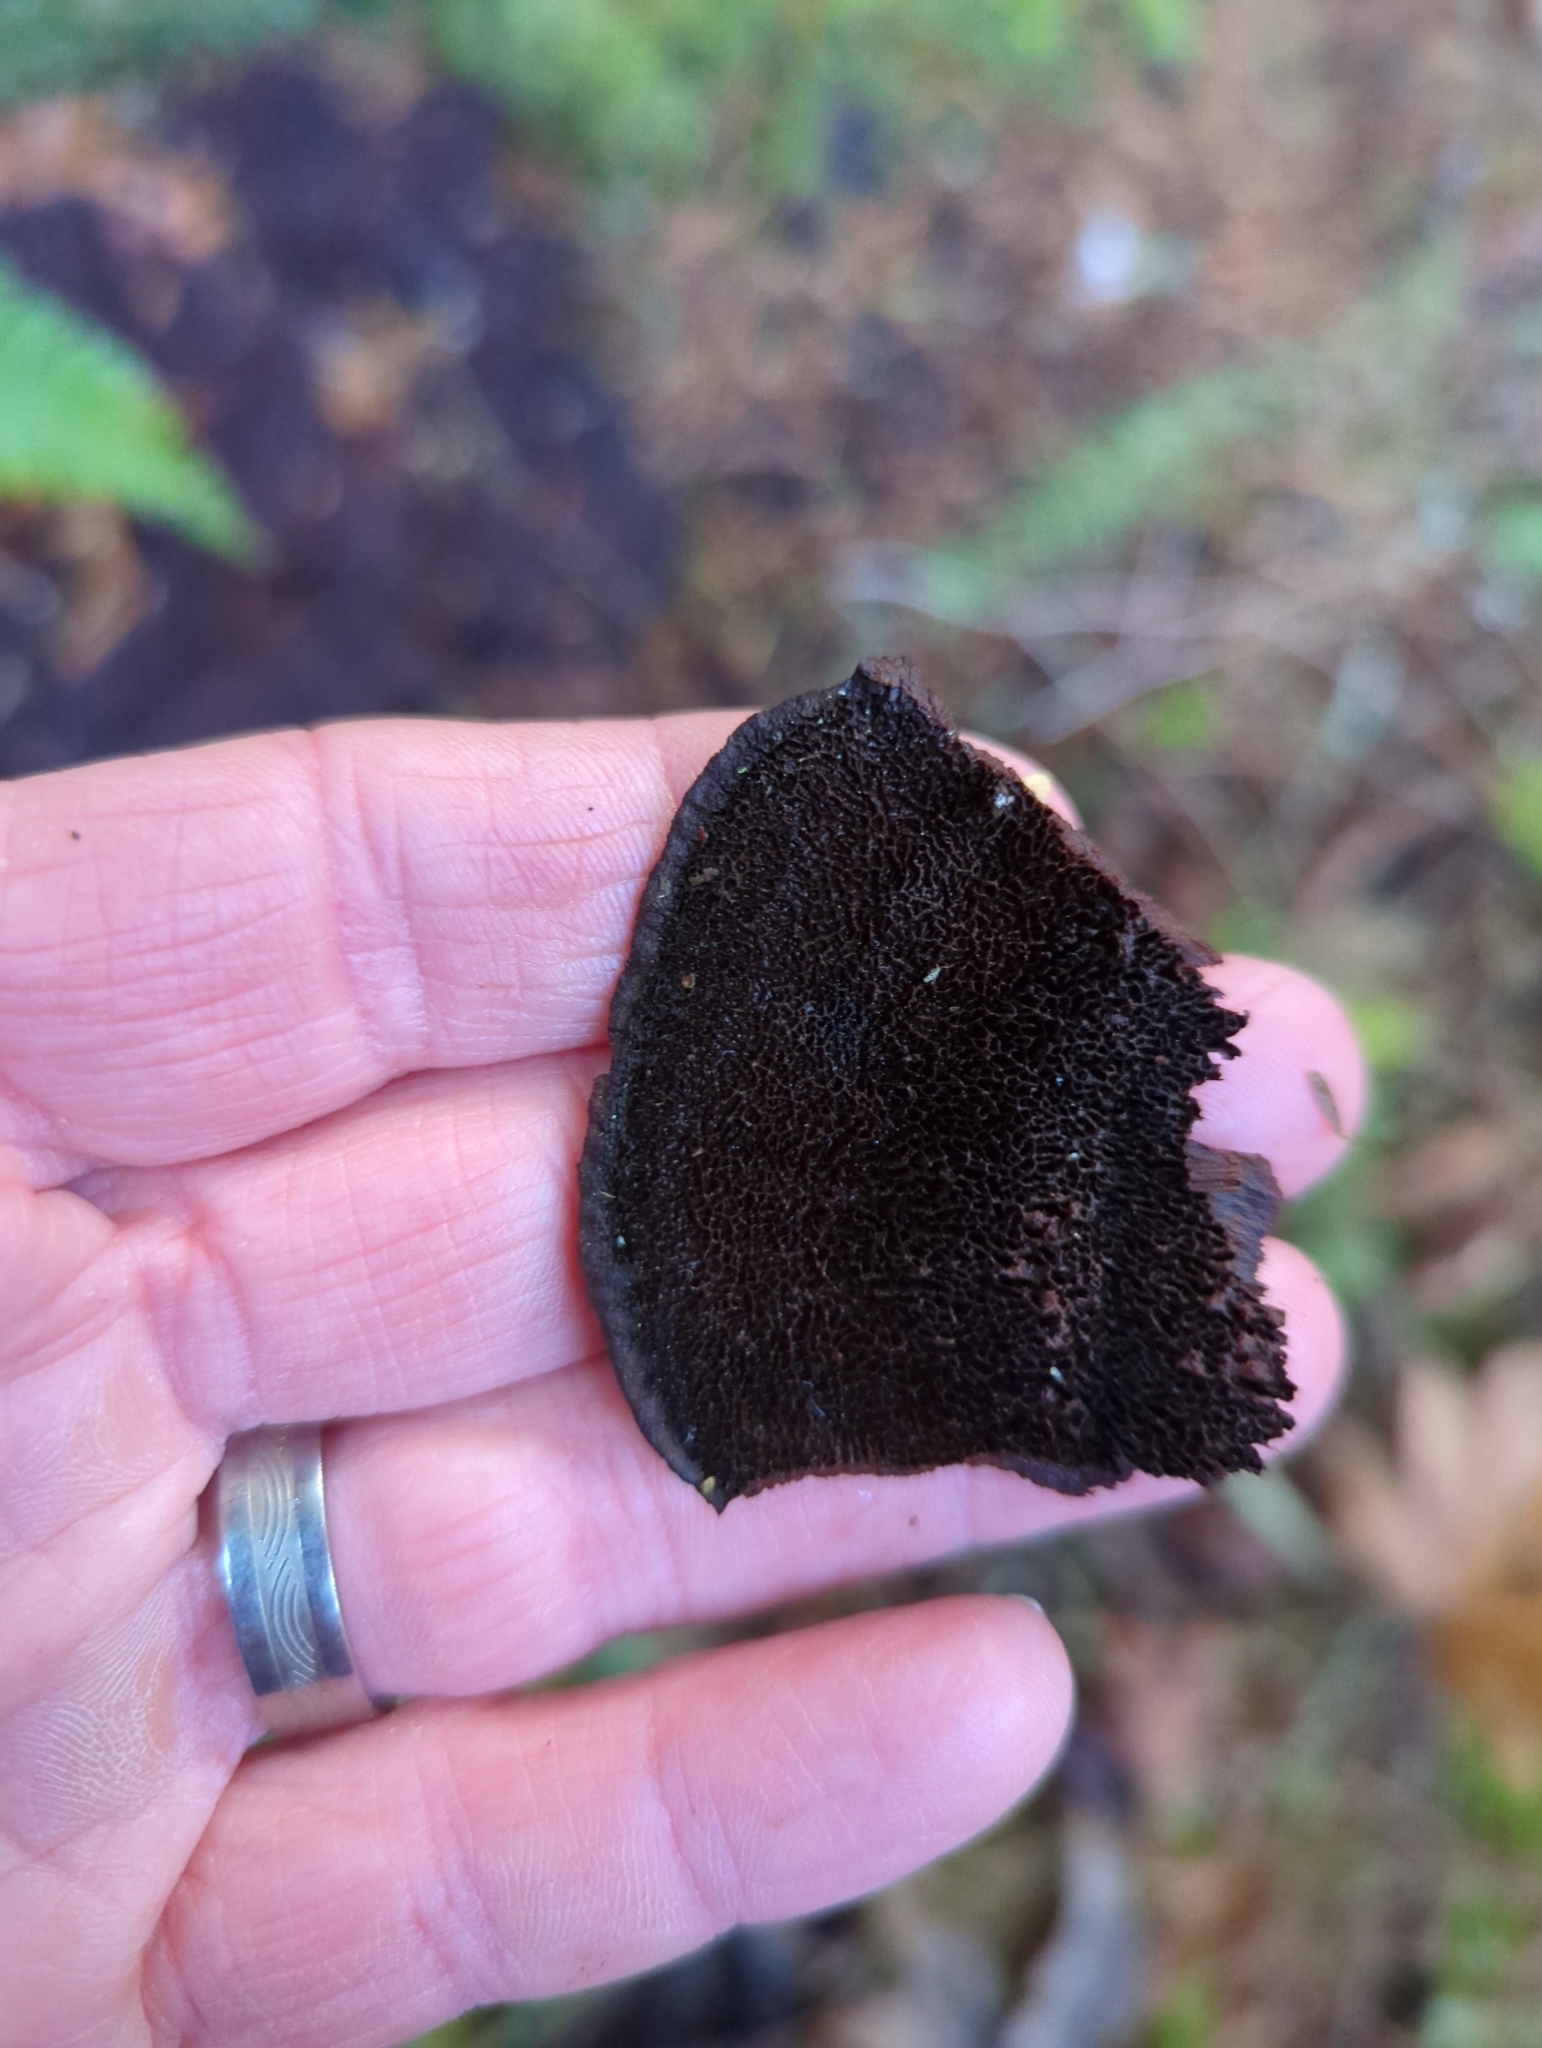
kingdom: Fungi
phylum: Basidiomycota
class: Agaricomycetes
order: Polyporales
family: Laetiporaceae
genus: Phaeolus
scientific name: Phaeolus schweinitzii
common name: Dyer's mazegill
